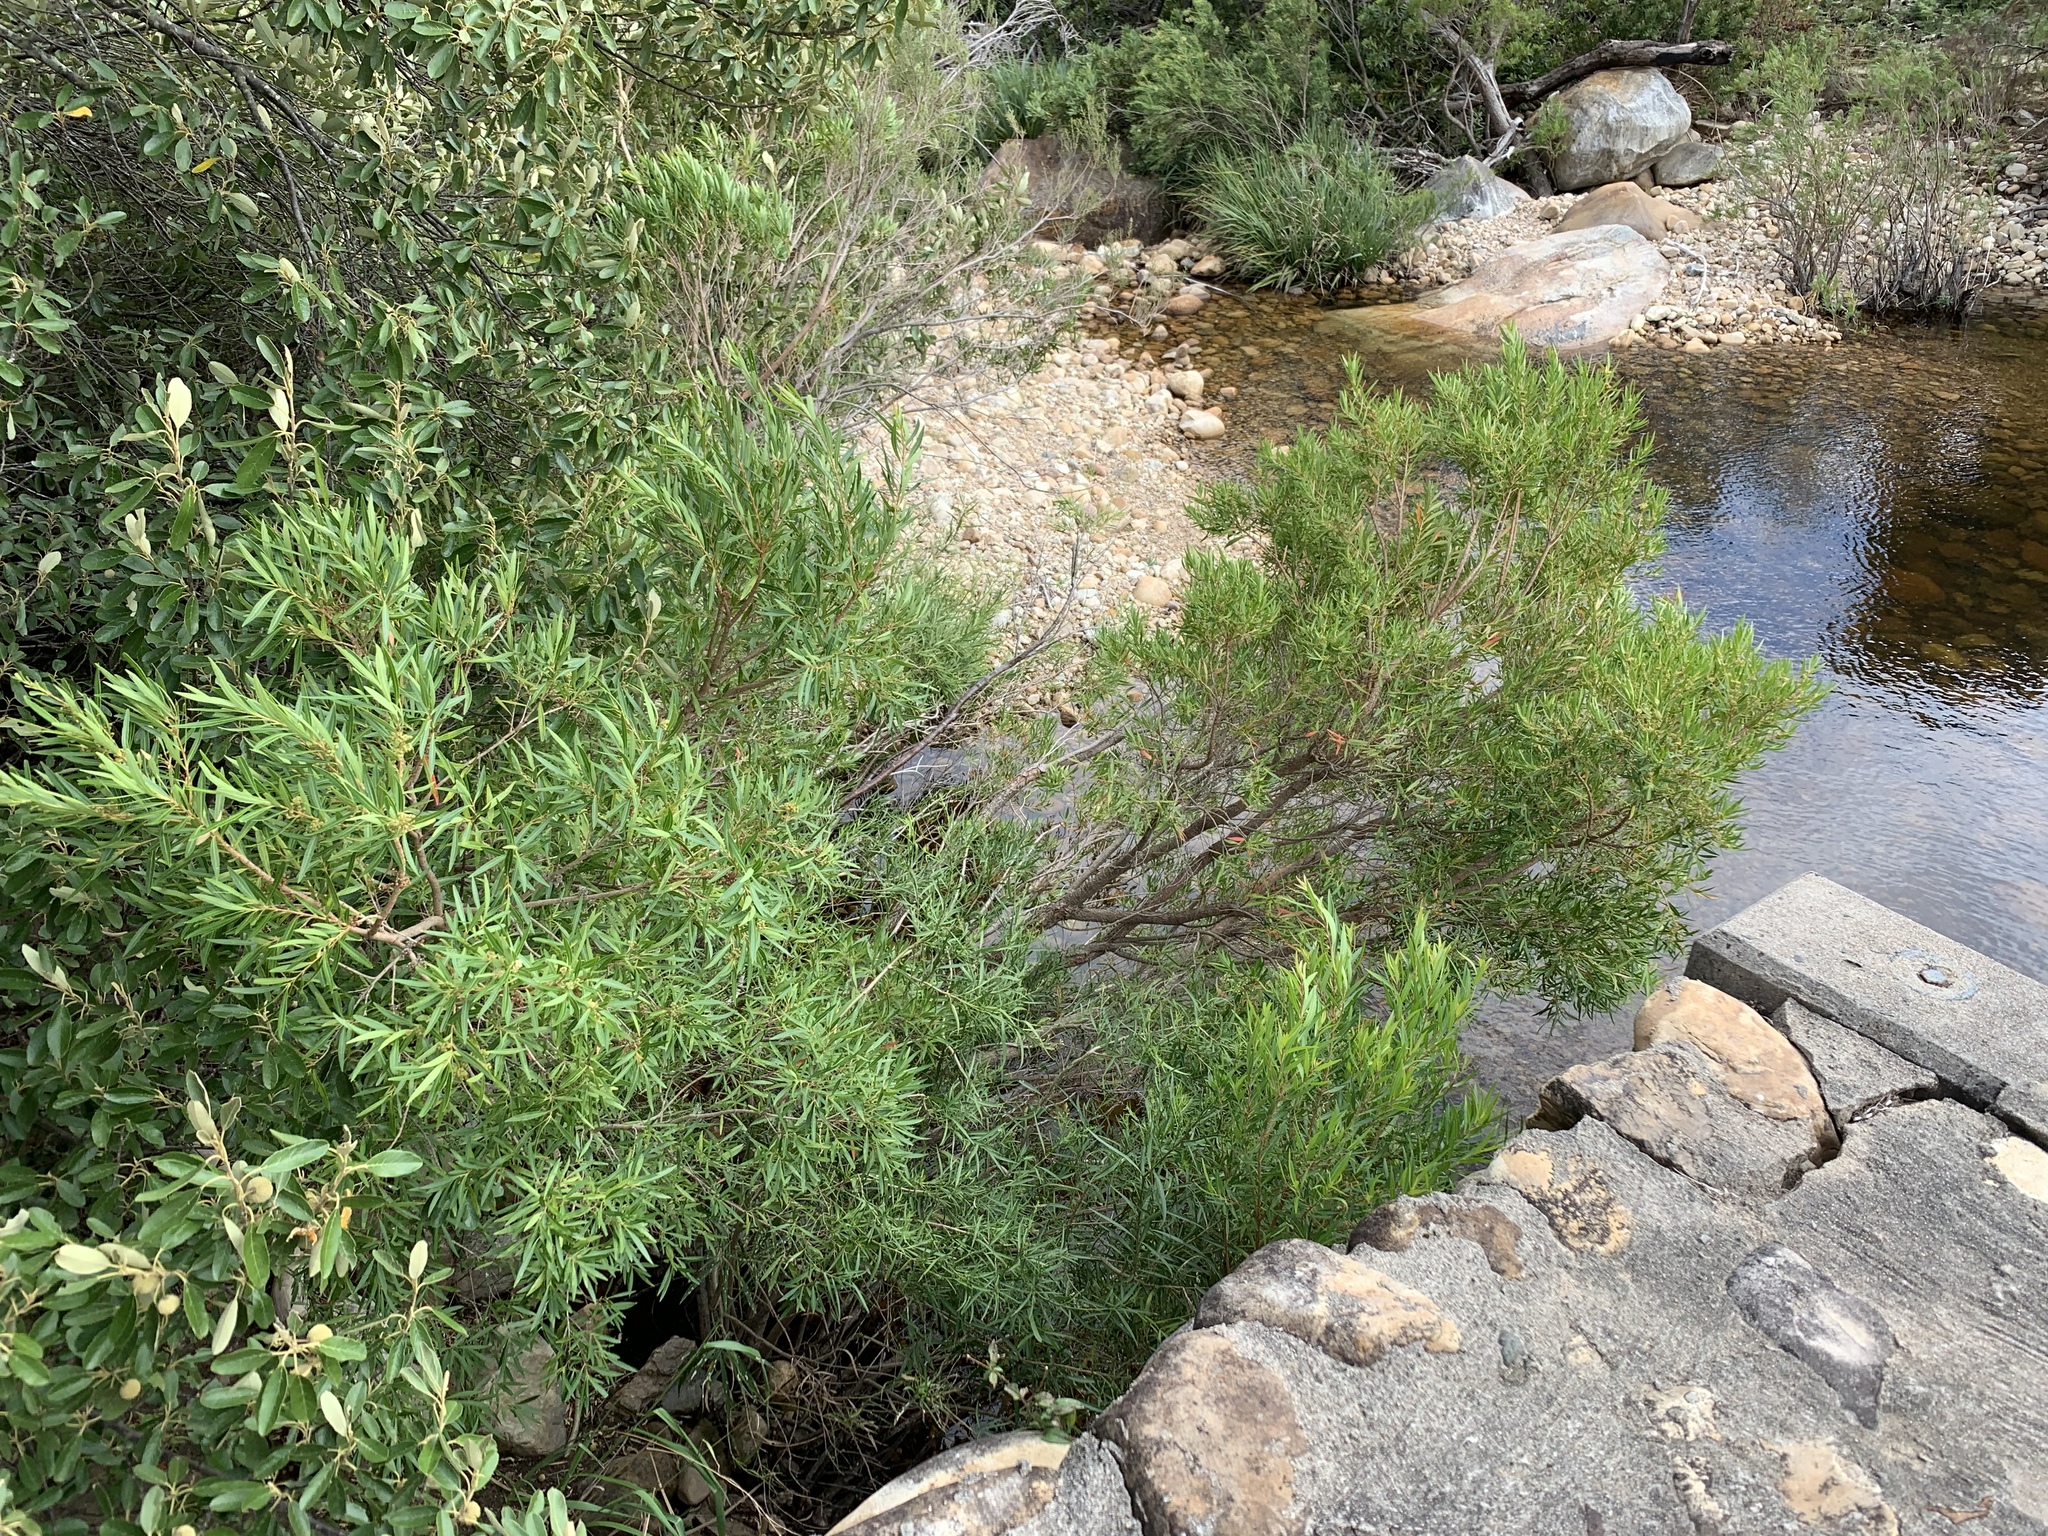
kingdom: Plantae
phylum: Tracheophyta
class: Magnoliopsida
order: Myrtales
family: Myrtaceae
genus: Callistemon
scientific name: Callistemon lanceolatus
